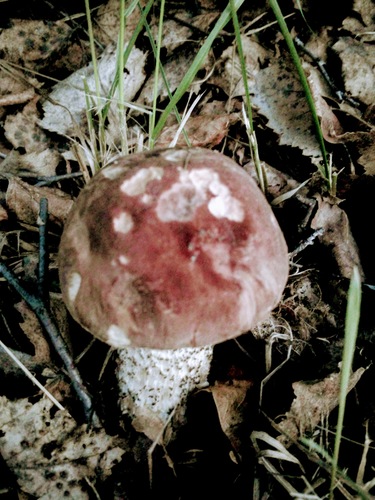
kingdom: Fungi
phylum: Basidiomycota
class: Agaricomycetes
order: Boletales
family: Boletaceae
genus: Leccinum
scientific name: Leccinum scabrum
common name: Blushing bolete
